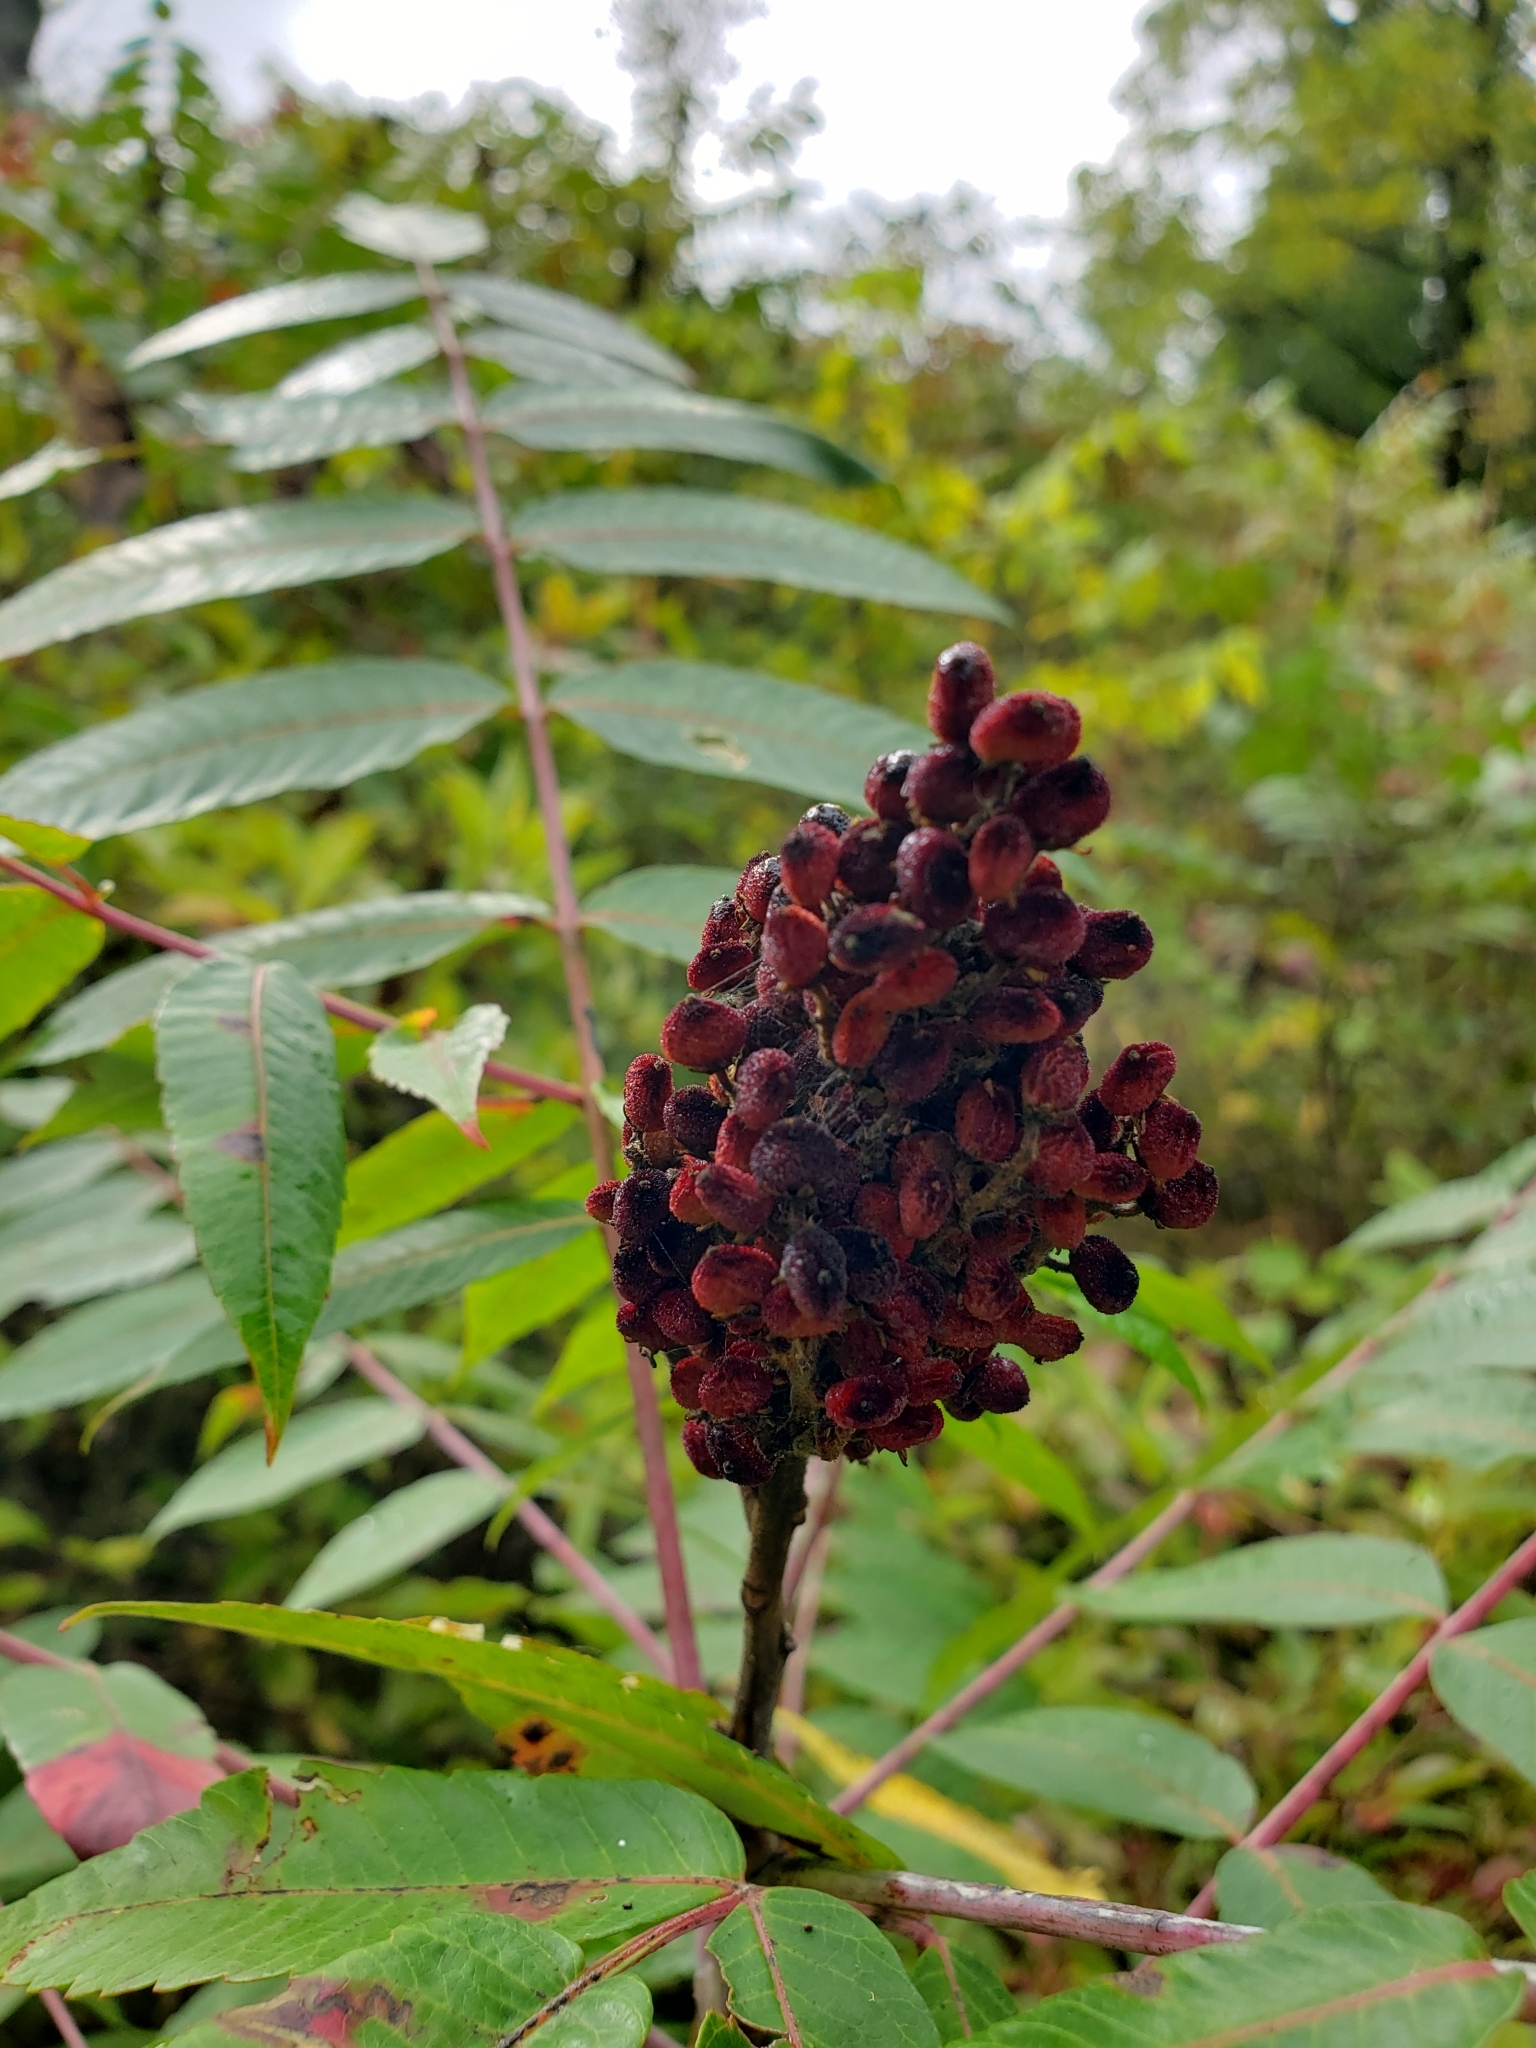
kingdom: Plantae
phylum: Tracheophyta
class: Magnoliopsida
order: Sapindales
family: Anacardiaceae
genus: Rhus
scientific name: Rhus glabra
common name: Scarlet sumac
